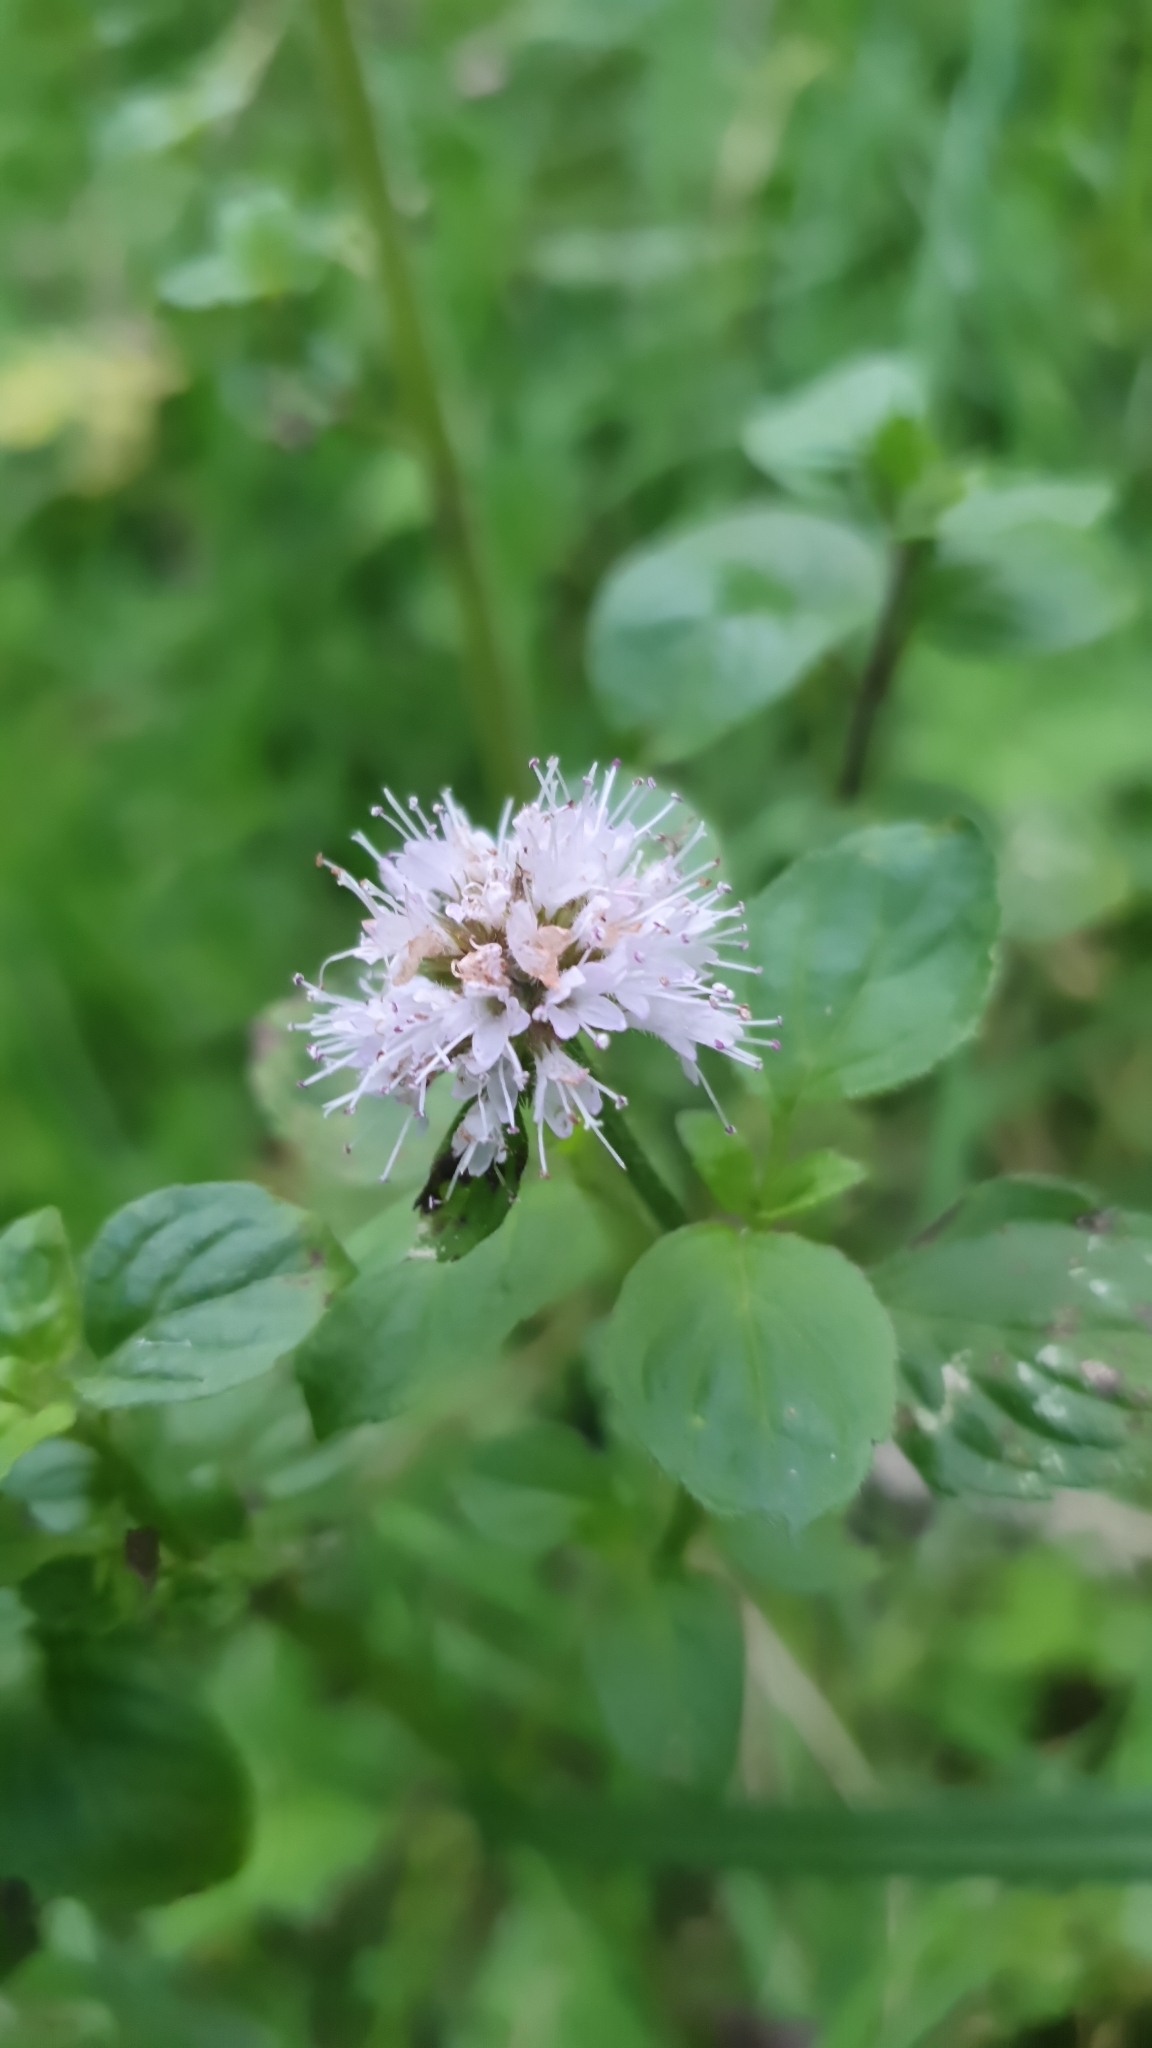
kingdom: Plantae
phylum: Tracheophyta
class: Magnoliopsida
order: Lamiales
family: Lamiaceae
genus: Mentha
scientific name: Mentha aquatica
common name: Water mint
